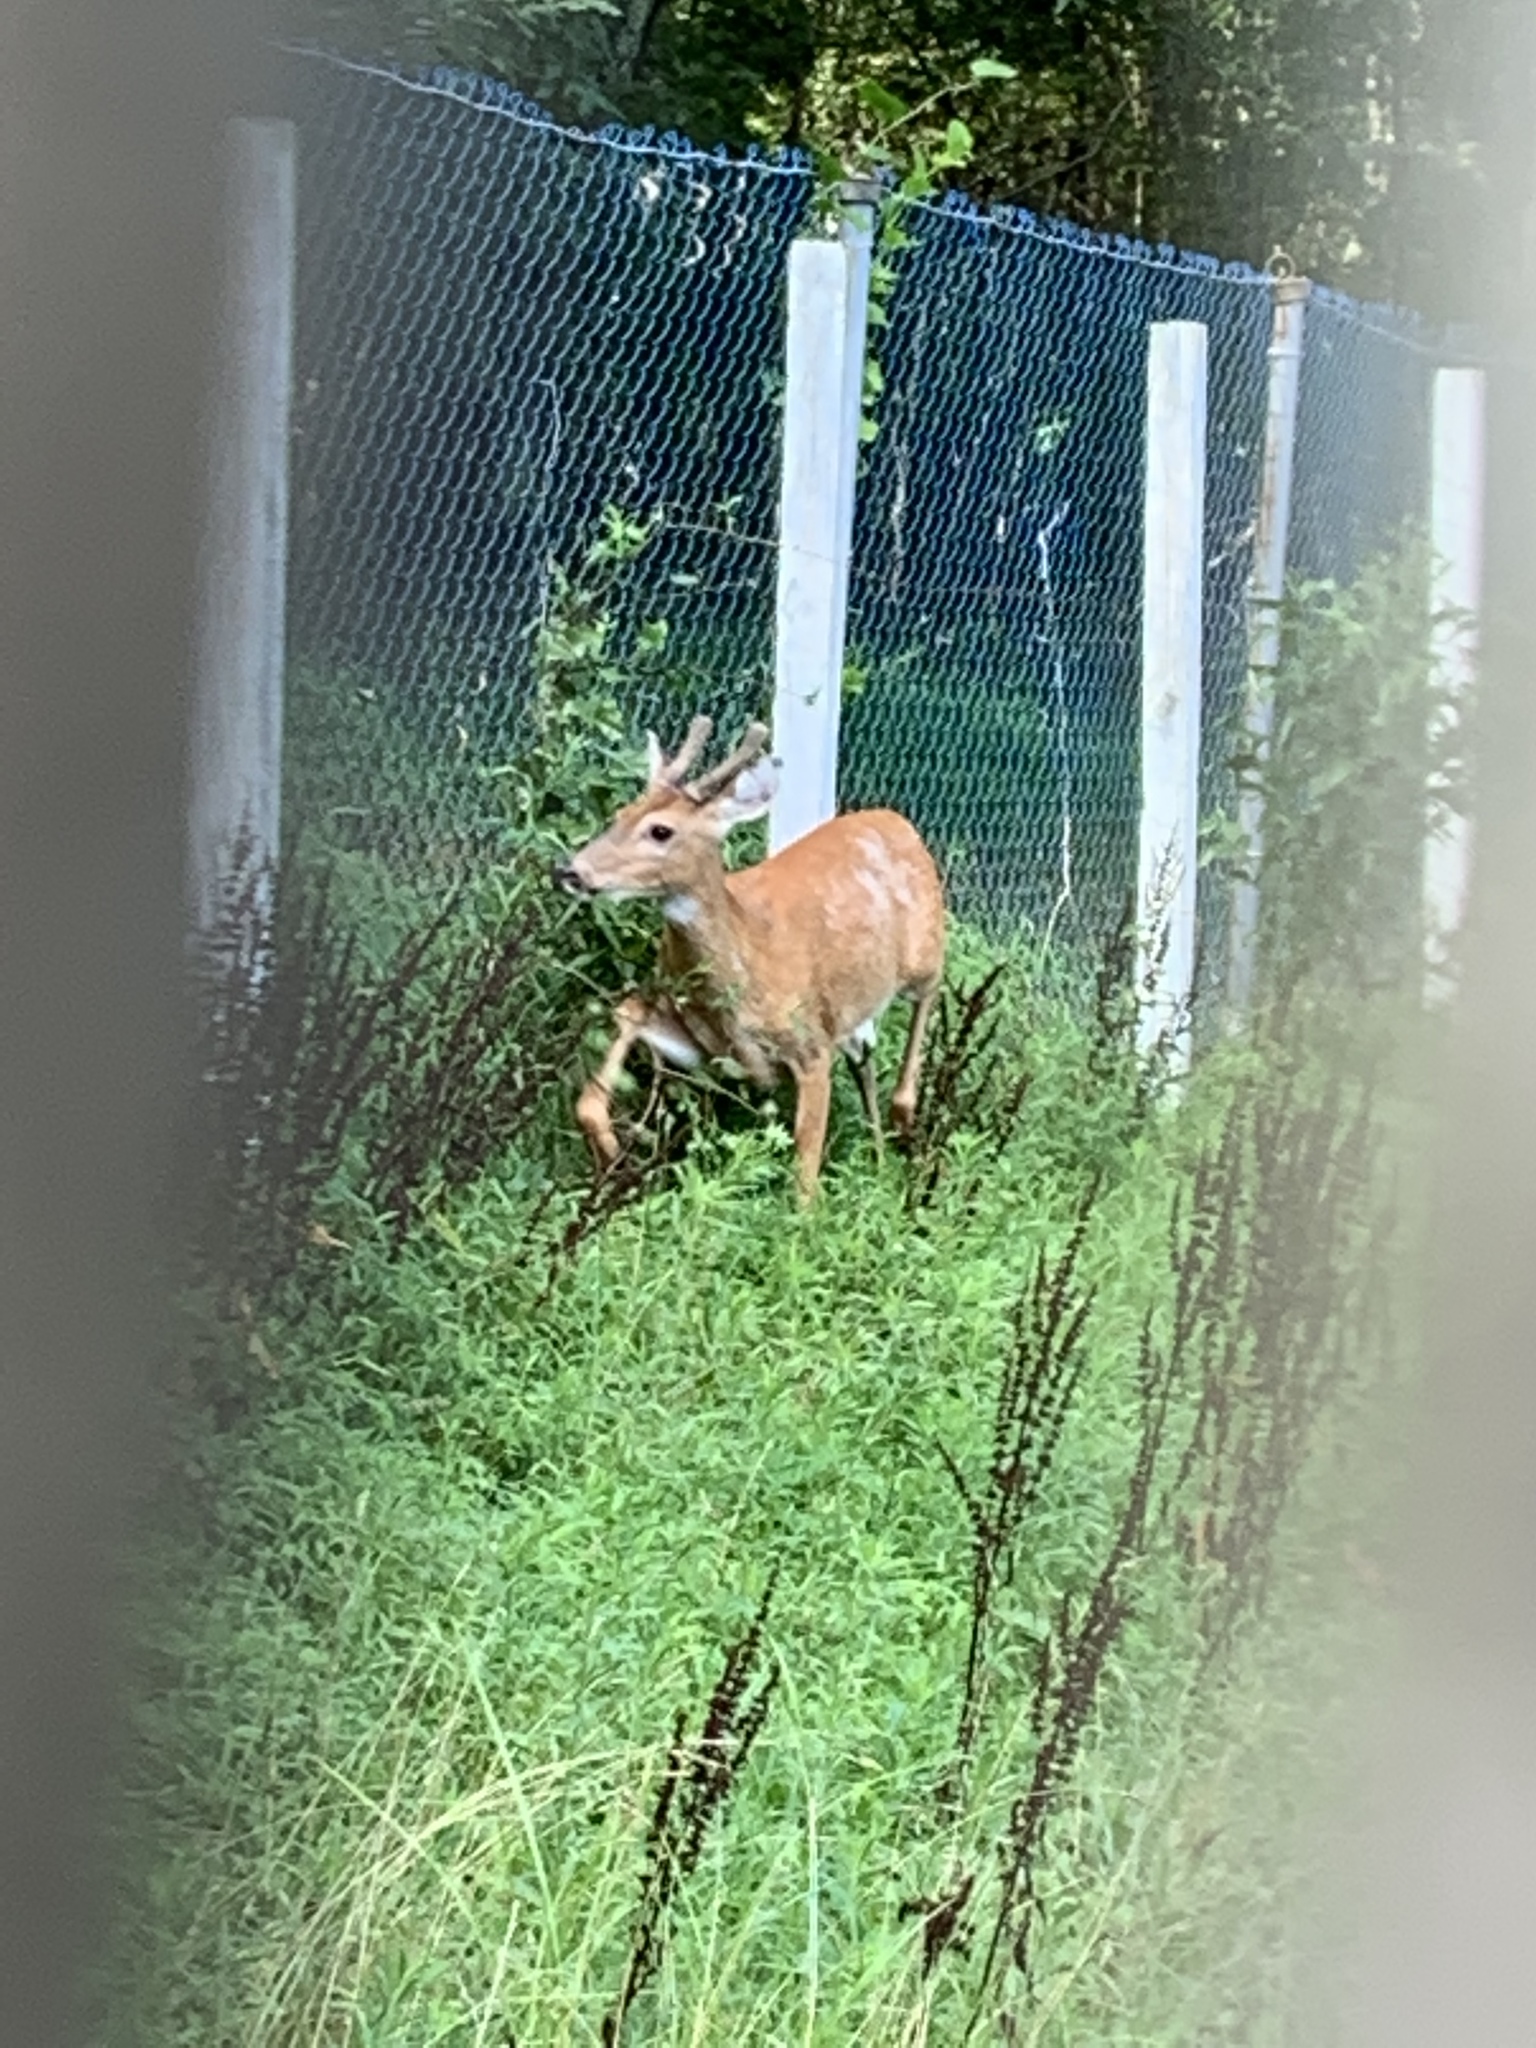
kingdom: Animalia
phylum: Chordata
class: Mammalia
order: Artiodactyla
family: Cervidae
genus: Odocoileus
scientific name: Odocoileus virginianus
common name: White-tailed deer
